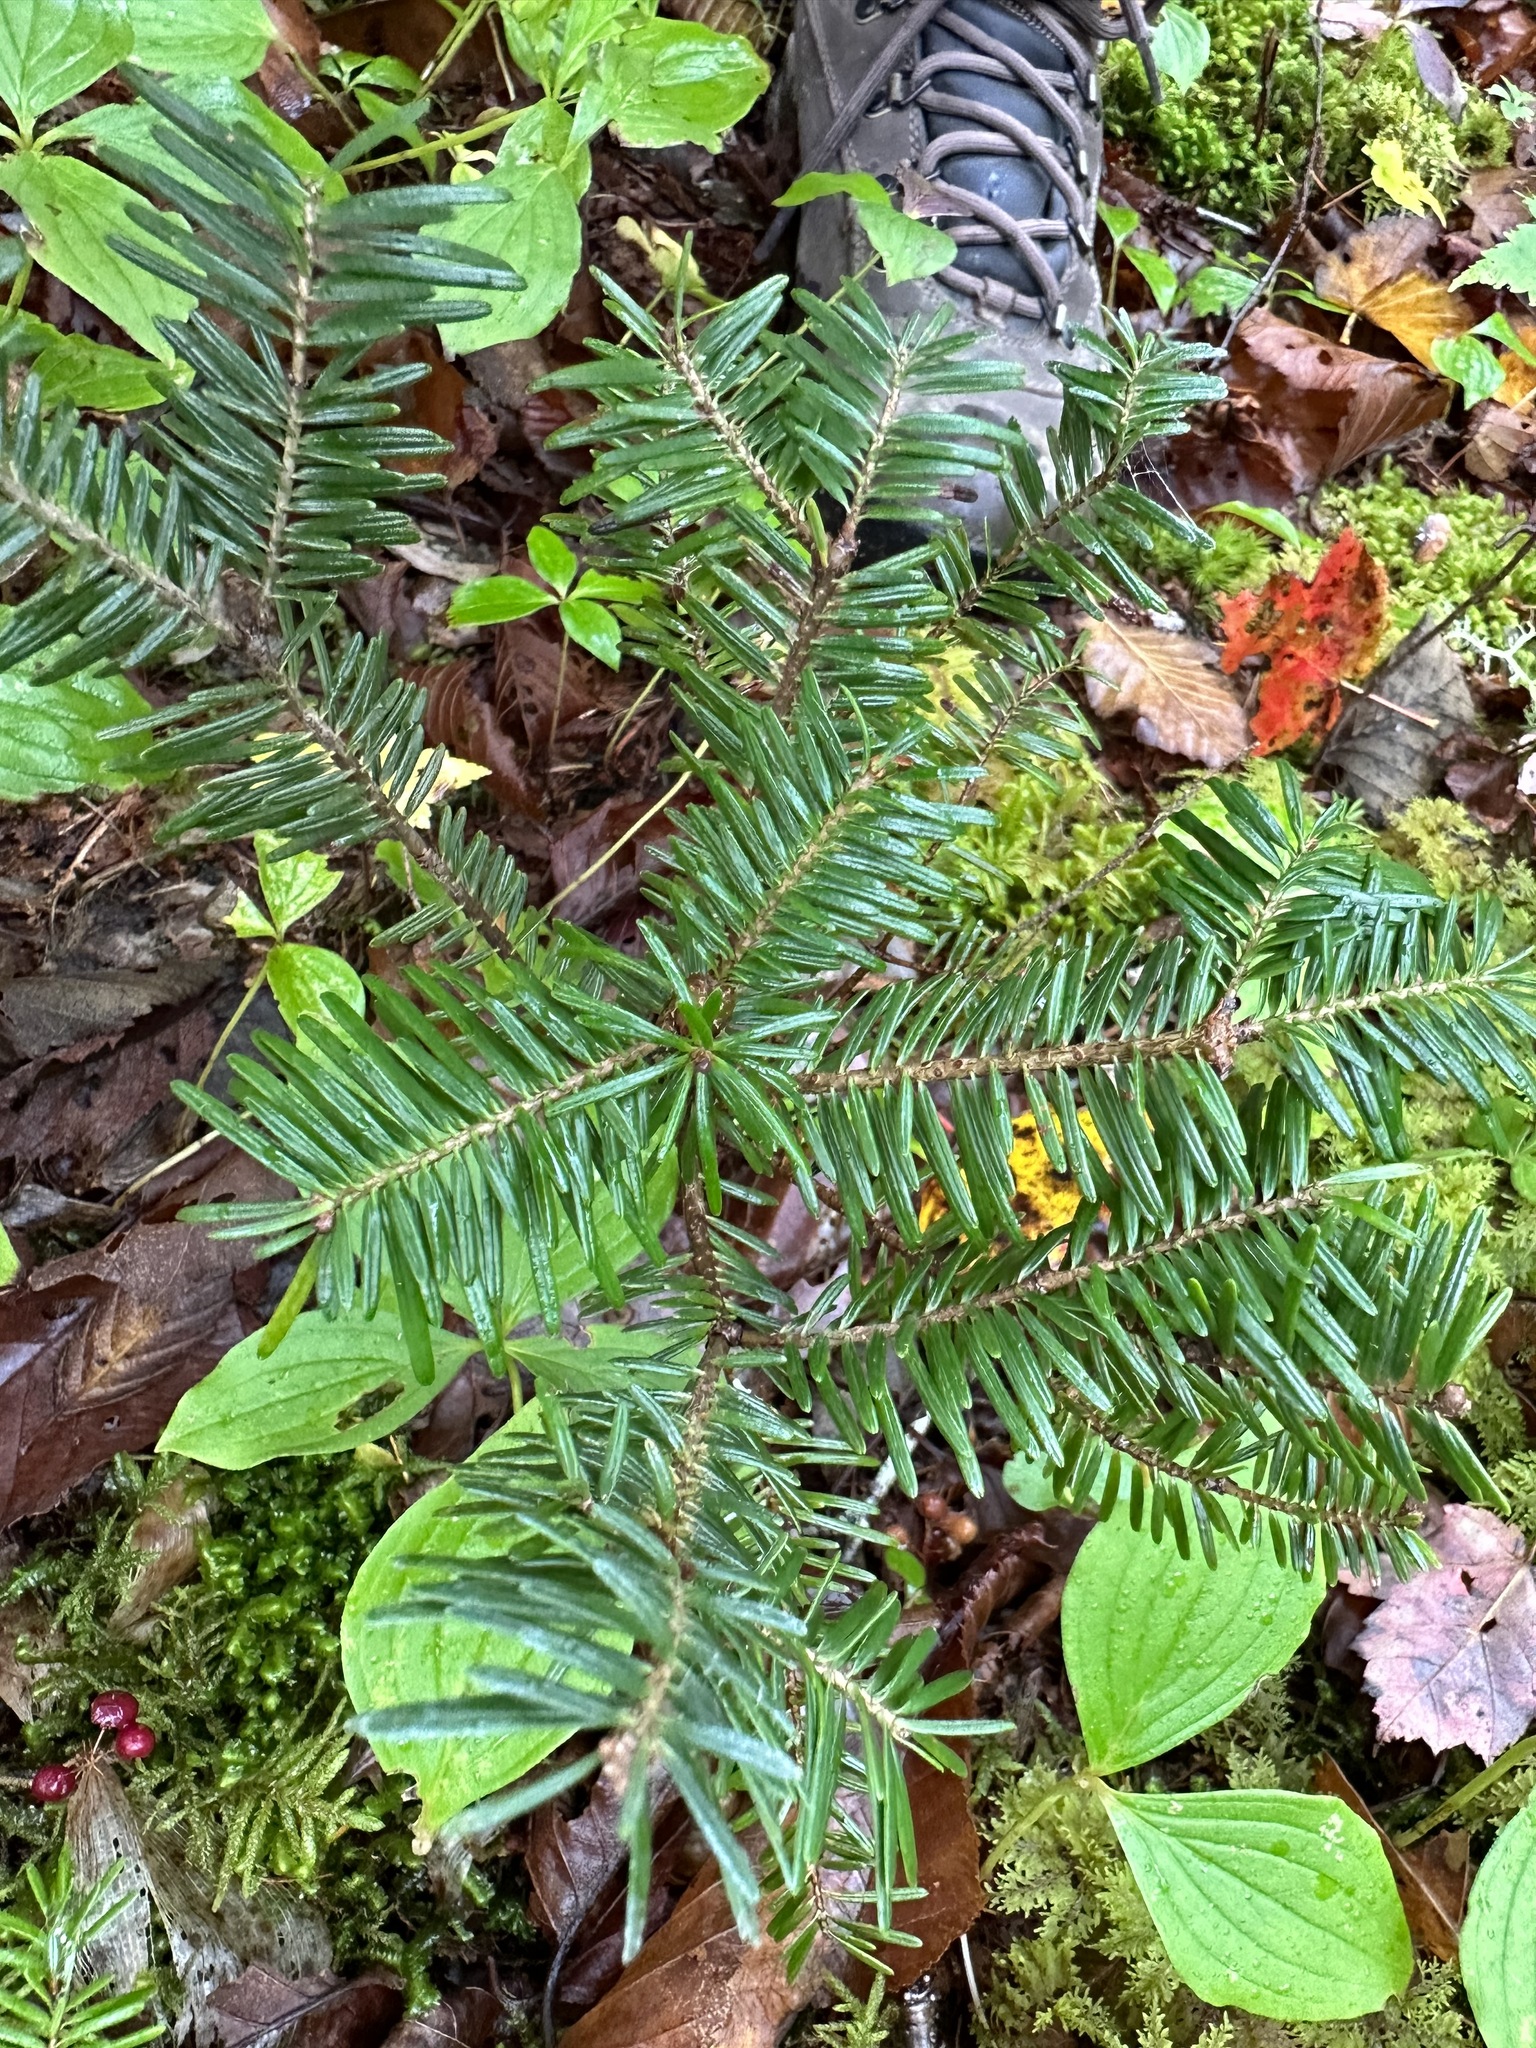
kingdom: Plantae
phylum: Tracheophyta
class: Pinopsida
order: Pinales
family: Pinaceae
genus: Abies
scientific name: Abies balsamea
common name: Balsam fir
